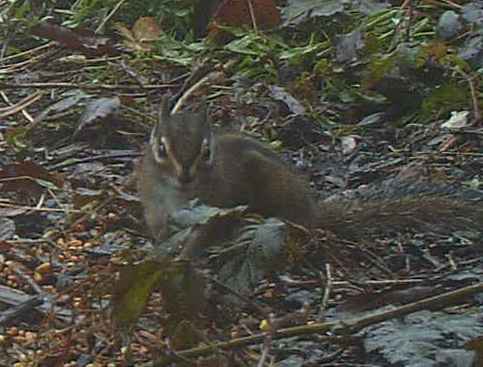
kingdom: Animalia
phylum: Chordata
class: Mammalia
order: Rodentia
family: Sciuridae
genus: Tamias
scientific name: Tamias townsendii
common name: Townsend's chipmunk
